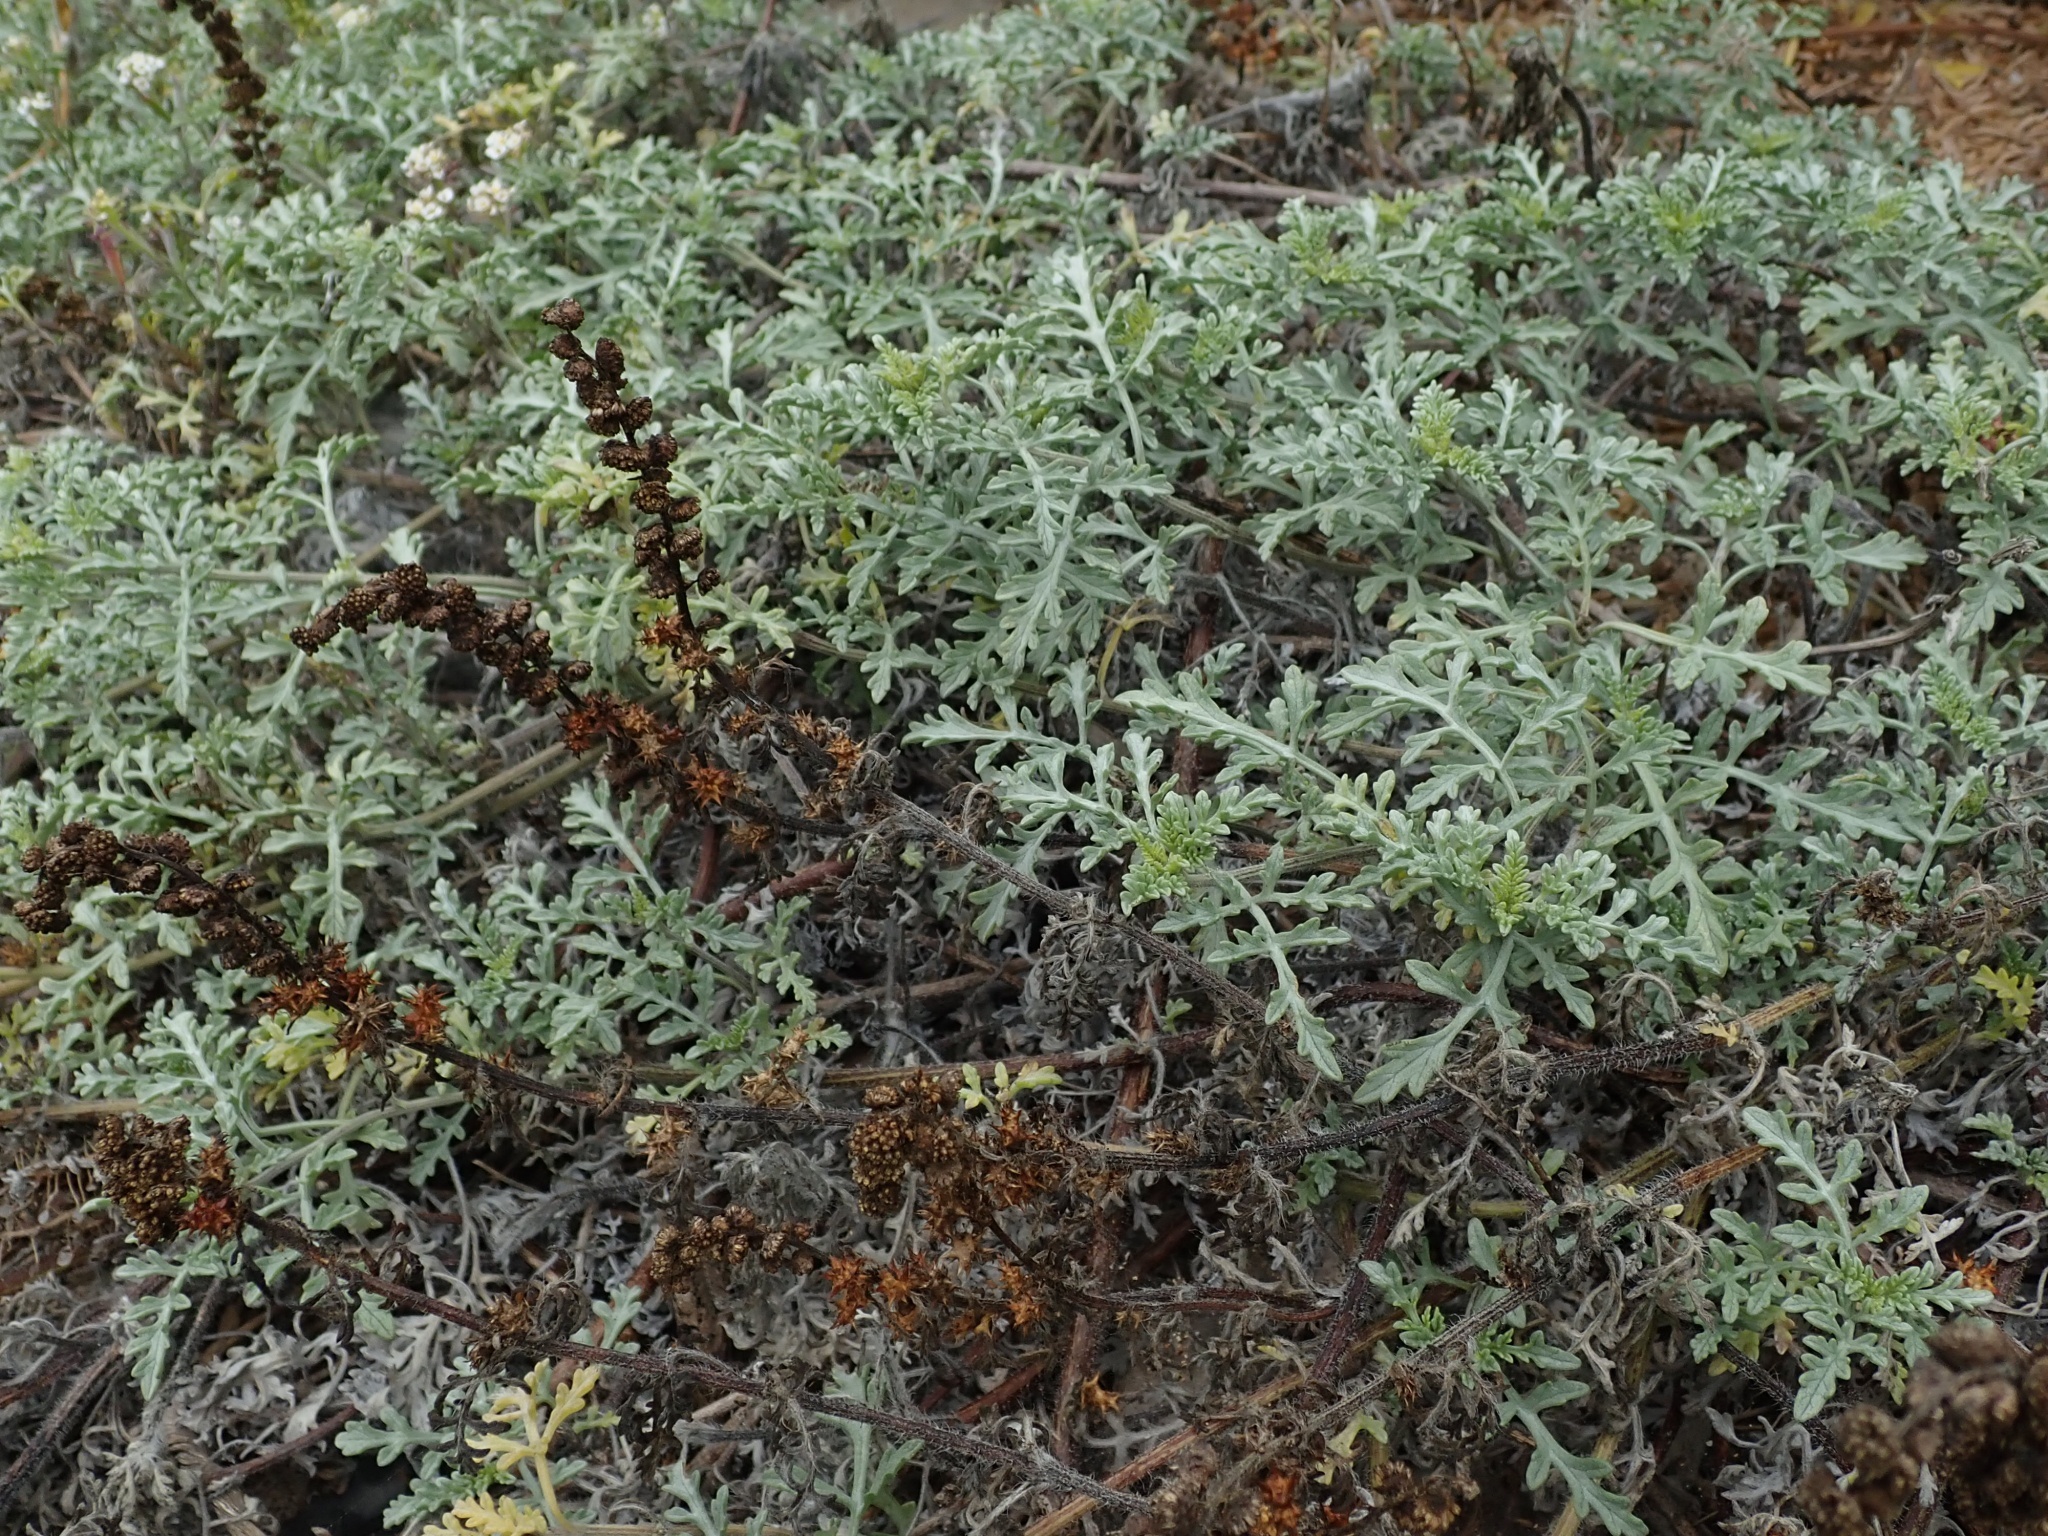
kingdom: Plantae
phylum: Tracheophyta
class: Magnoliopsida
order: Asterales
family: Asteraceae
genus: Ambrosia
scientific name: Ambrosia chamissonis
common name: Beachbur
